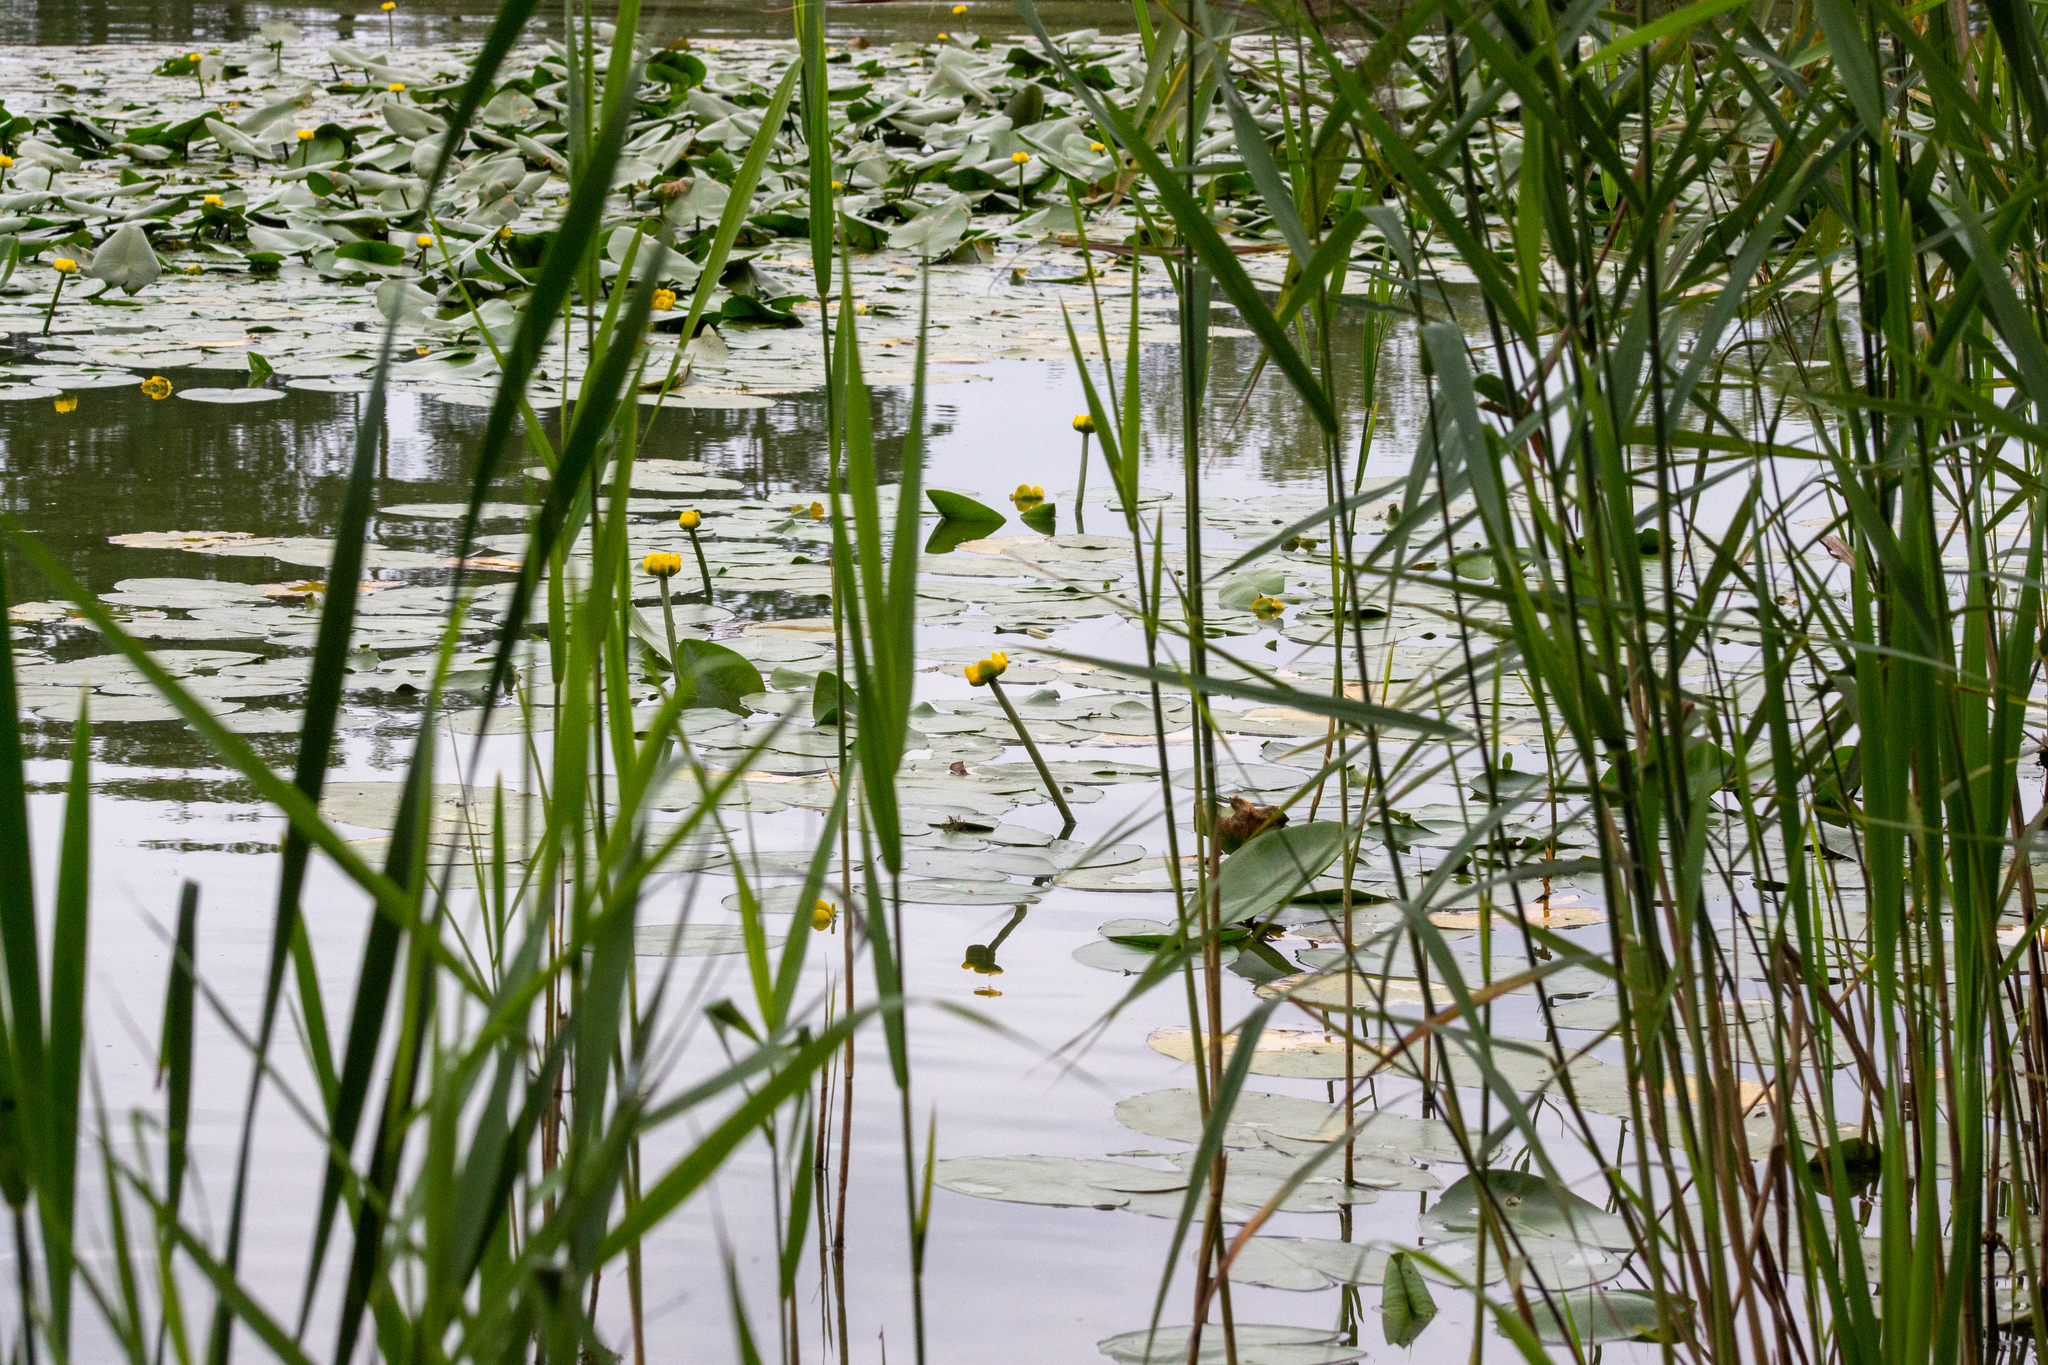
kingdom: Plantae
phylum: Tracheophyta
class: Magnoliopsida
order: Nymphaeales
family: Nymphaeaceae
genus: Nuphar
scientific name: Nuphar lutea
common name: Yellow water-lily
